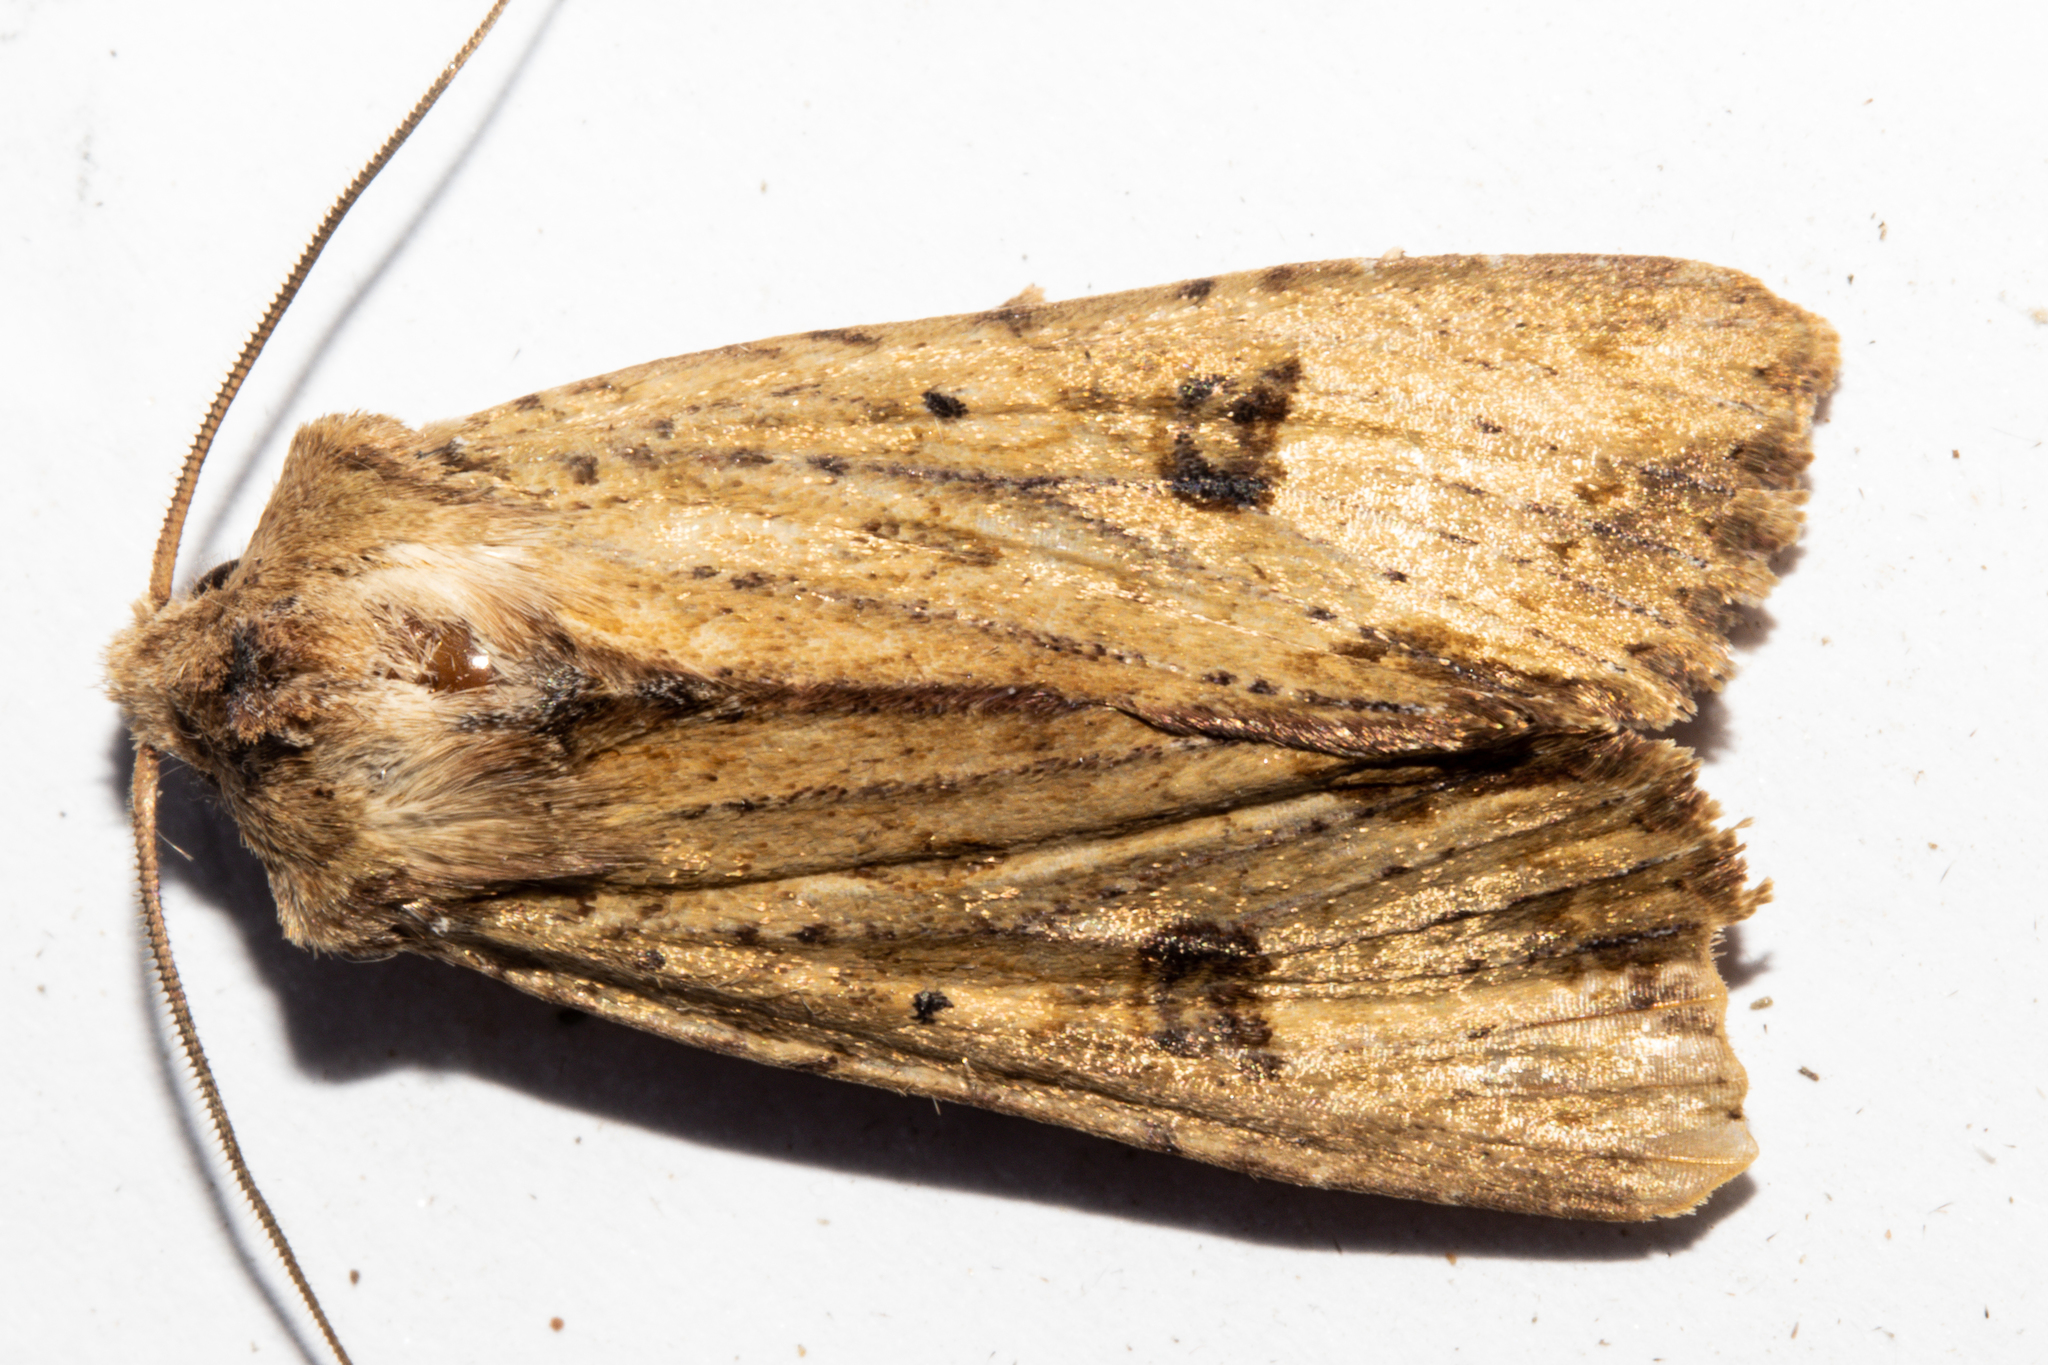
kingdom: Animalia
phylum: Arthropoda
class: Insecta
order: Lepidoptera
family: Noctuidae
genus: Ichneutica
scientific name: Ichneutica
